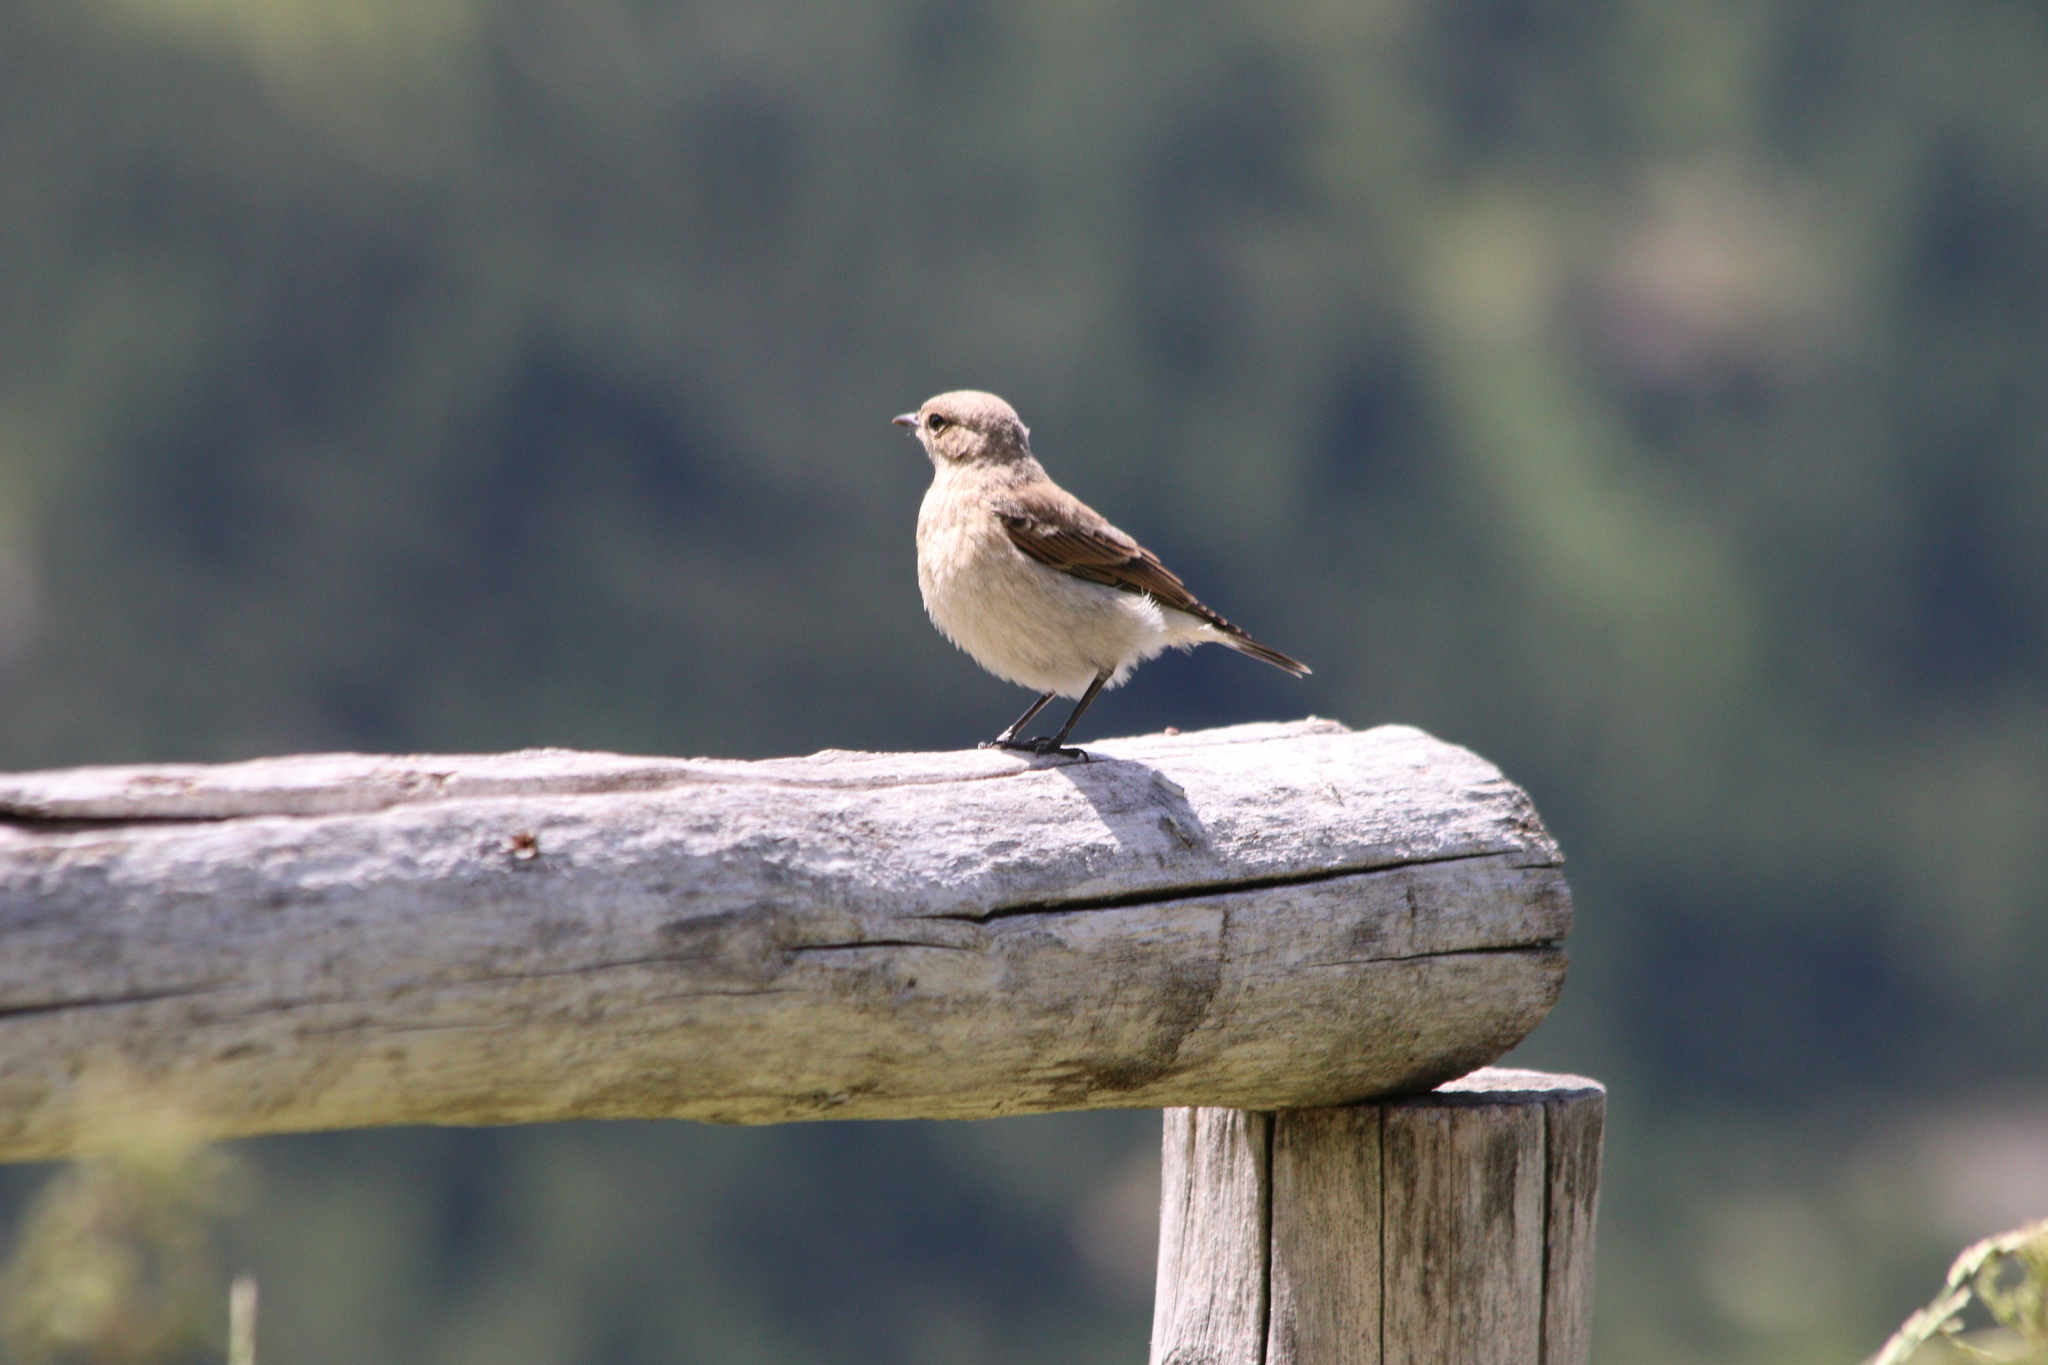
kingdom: Animalia
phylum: Chordata
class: Aves
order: Passeriformes
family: Muscicapidae
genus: Oenanthe
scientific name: Oenanthe oenanthe
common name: Northern wheatear
